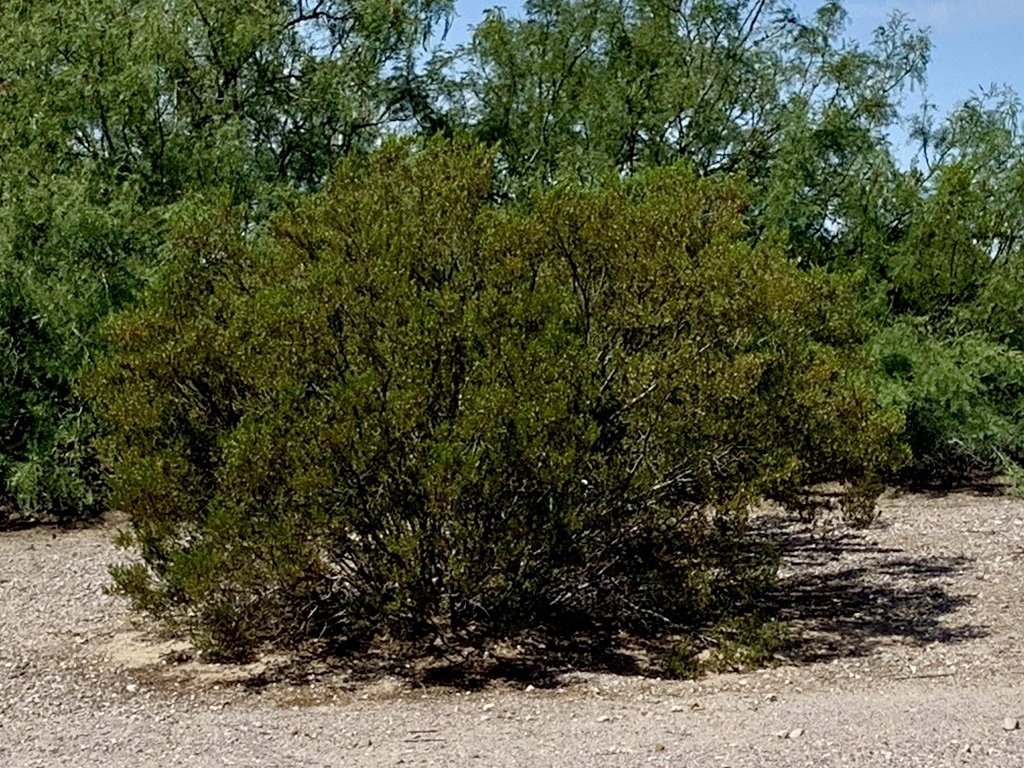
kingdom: Plantae
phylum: Tracheophyta
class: Magnoliopsida
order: Zygophyllales
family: Zygophyllaceae
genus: Larrea
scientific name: Larrea tridentata
